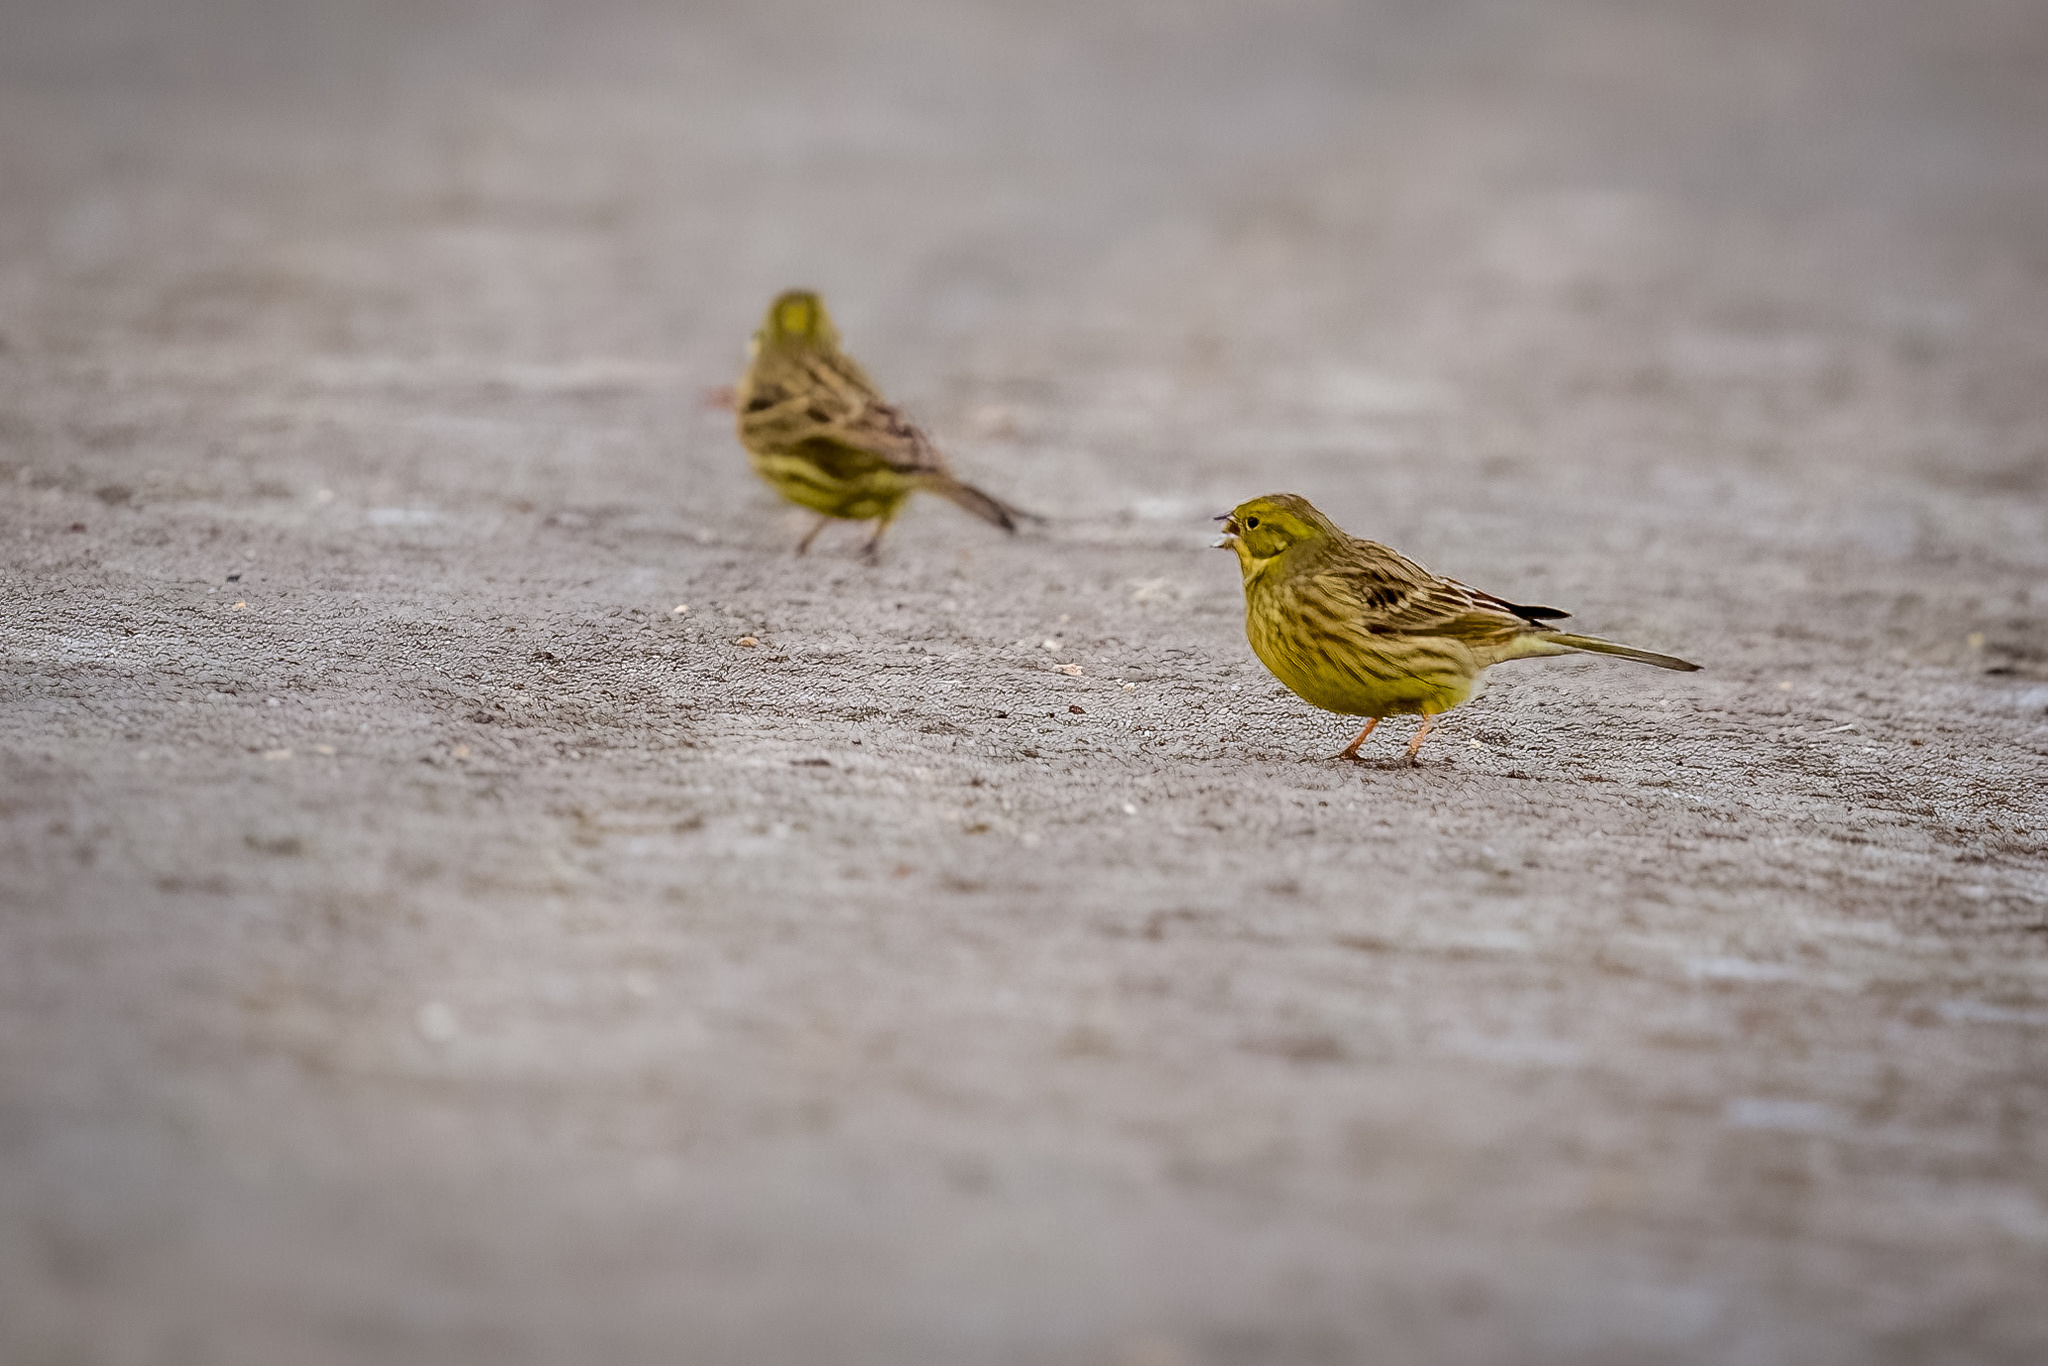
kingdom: Animalia
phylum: Chordata
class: Aves
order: Passeriformes
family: Emberizidae
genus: Emberiza
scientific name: Emberiza citrinella
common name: Yellowhammer
